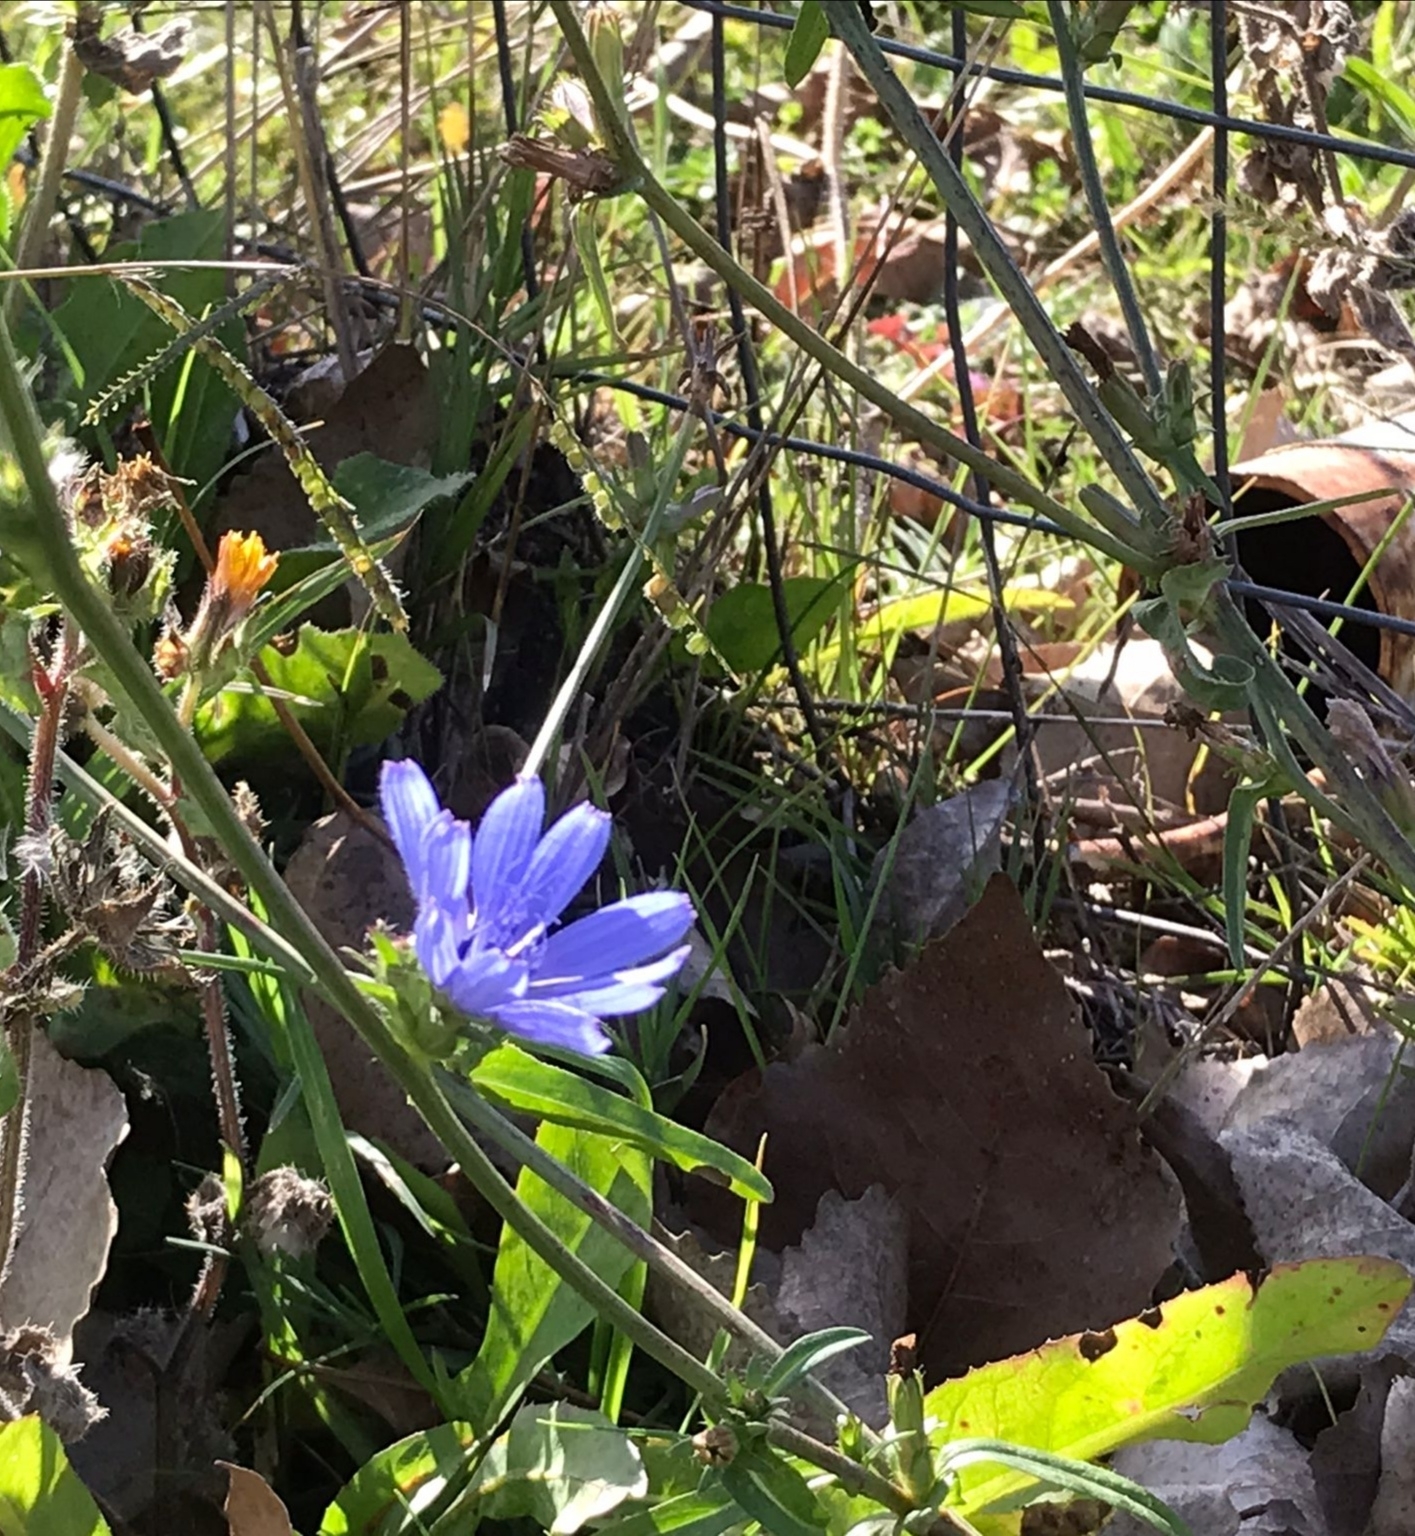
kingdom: Plantae
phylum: Tracheophyta
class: Magnoliopsida
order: Asterales
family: Asteraceae
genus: Cichorium
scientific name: Cichorium intybus
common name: Chicory
